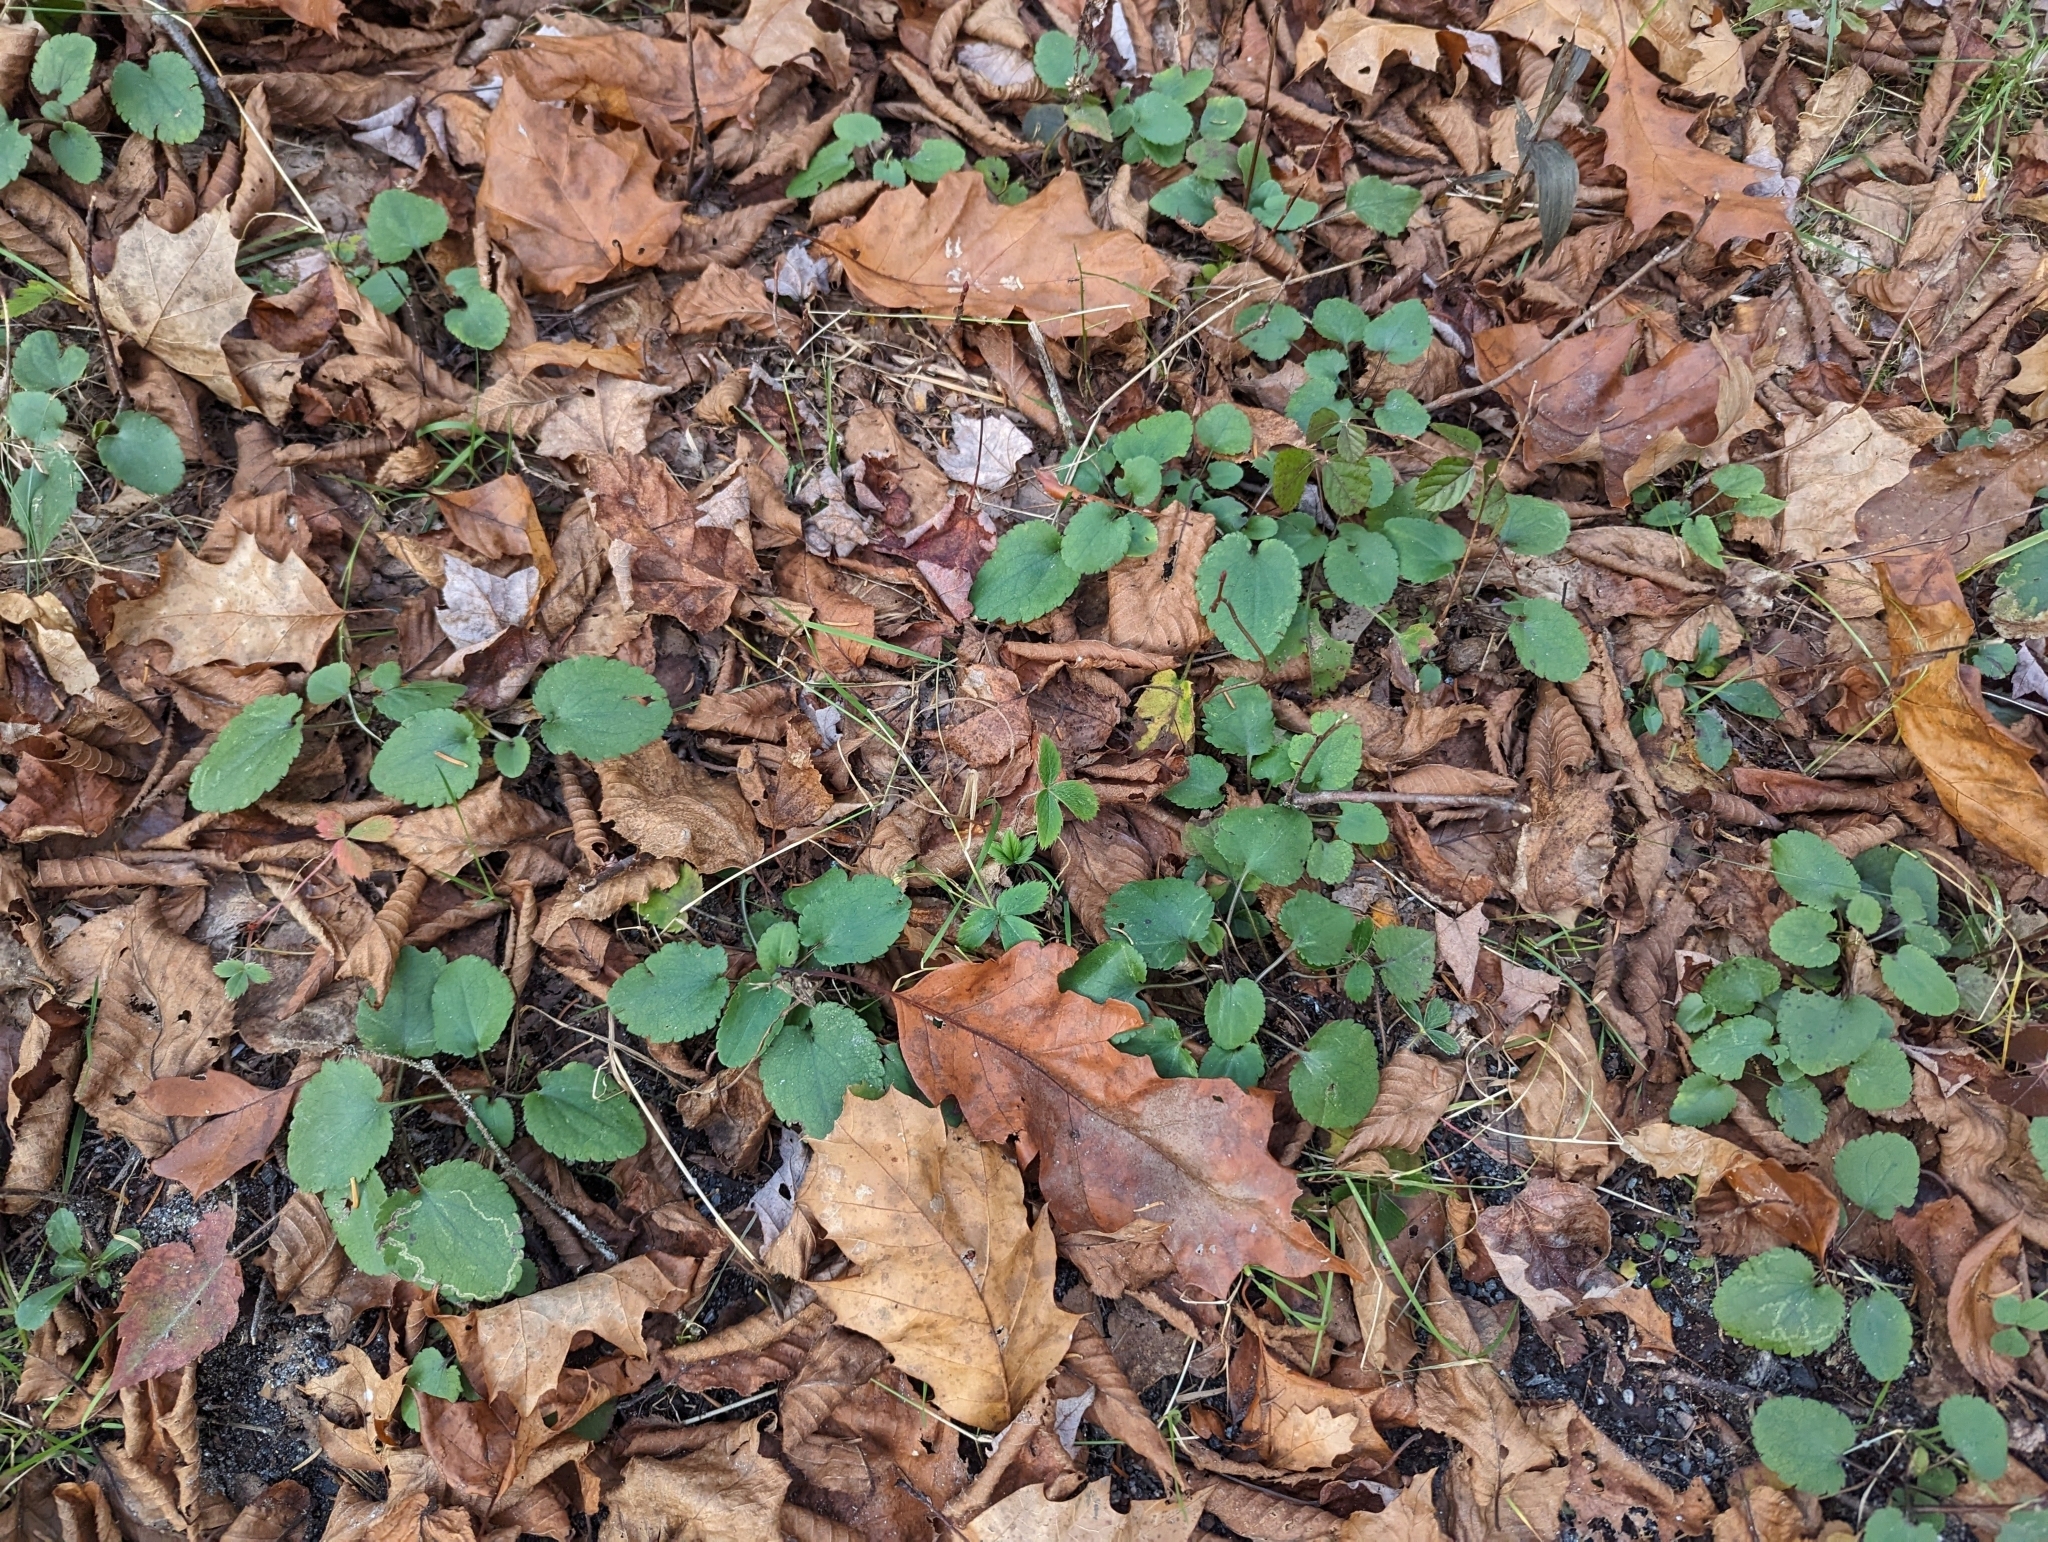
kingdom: Plantae
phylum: Tracheophyta
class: Magnoliopsida
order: Rosales
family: Rosaceae
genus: Dalibarda
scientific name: Dalibarda repens
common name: Dewdrop
